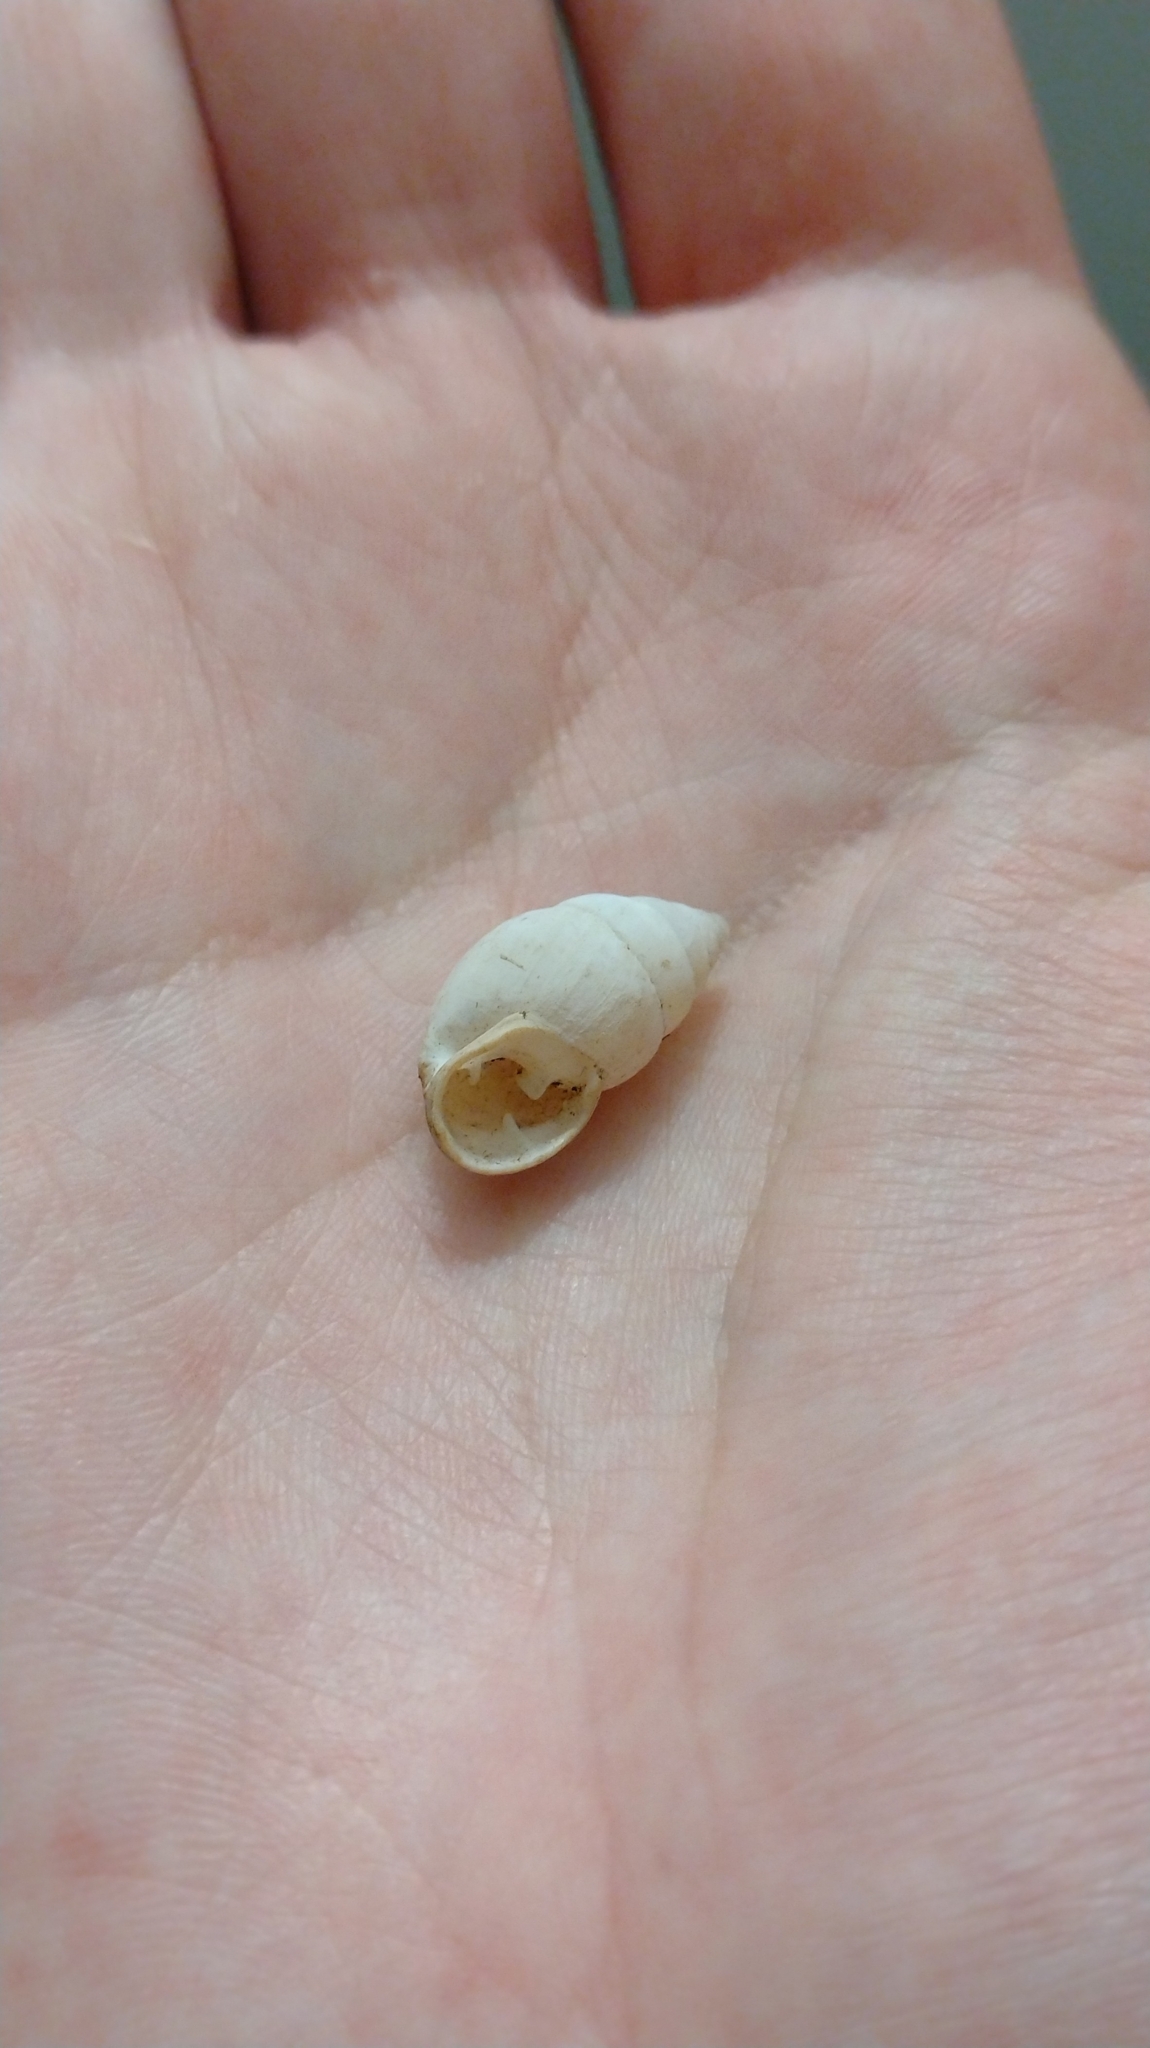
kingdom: Animalia
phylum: Mollusca
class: Gastropoda
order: Stylommatophora
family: Odontostomidae
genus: Plagiodontes
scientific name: Plagiodontes patagonicus
